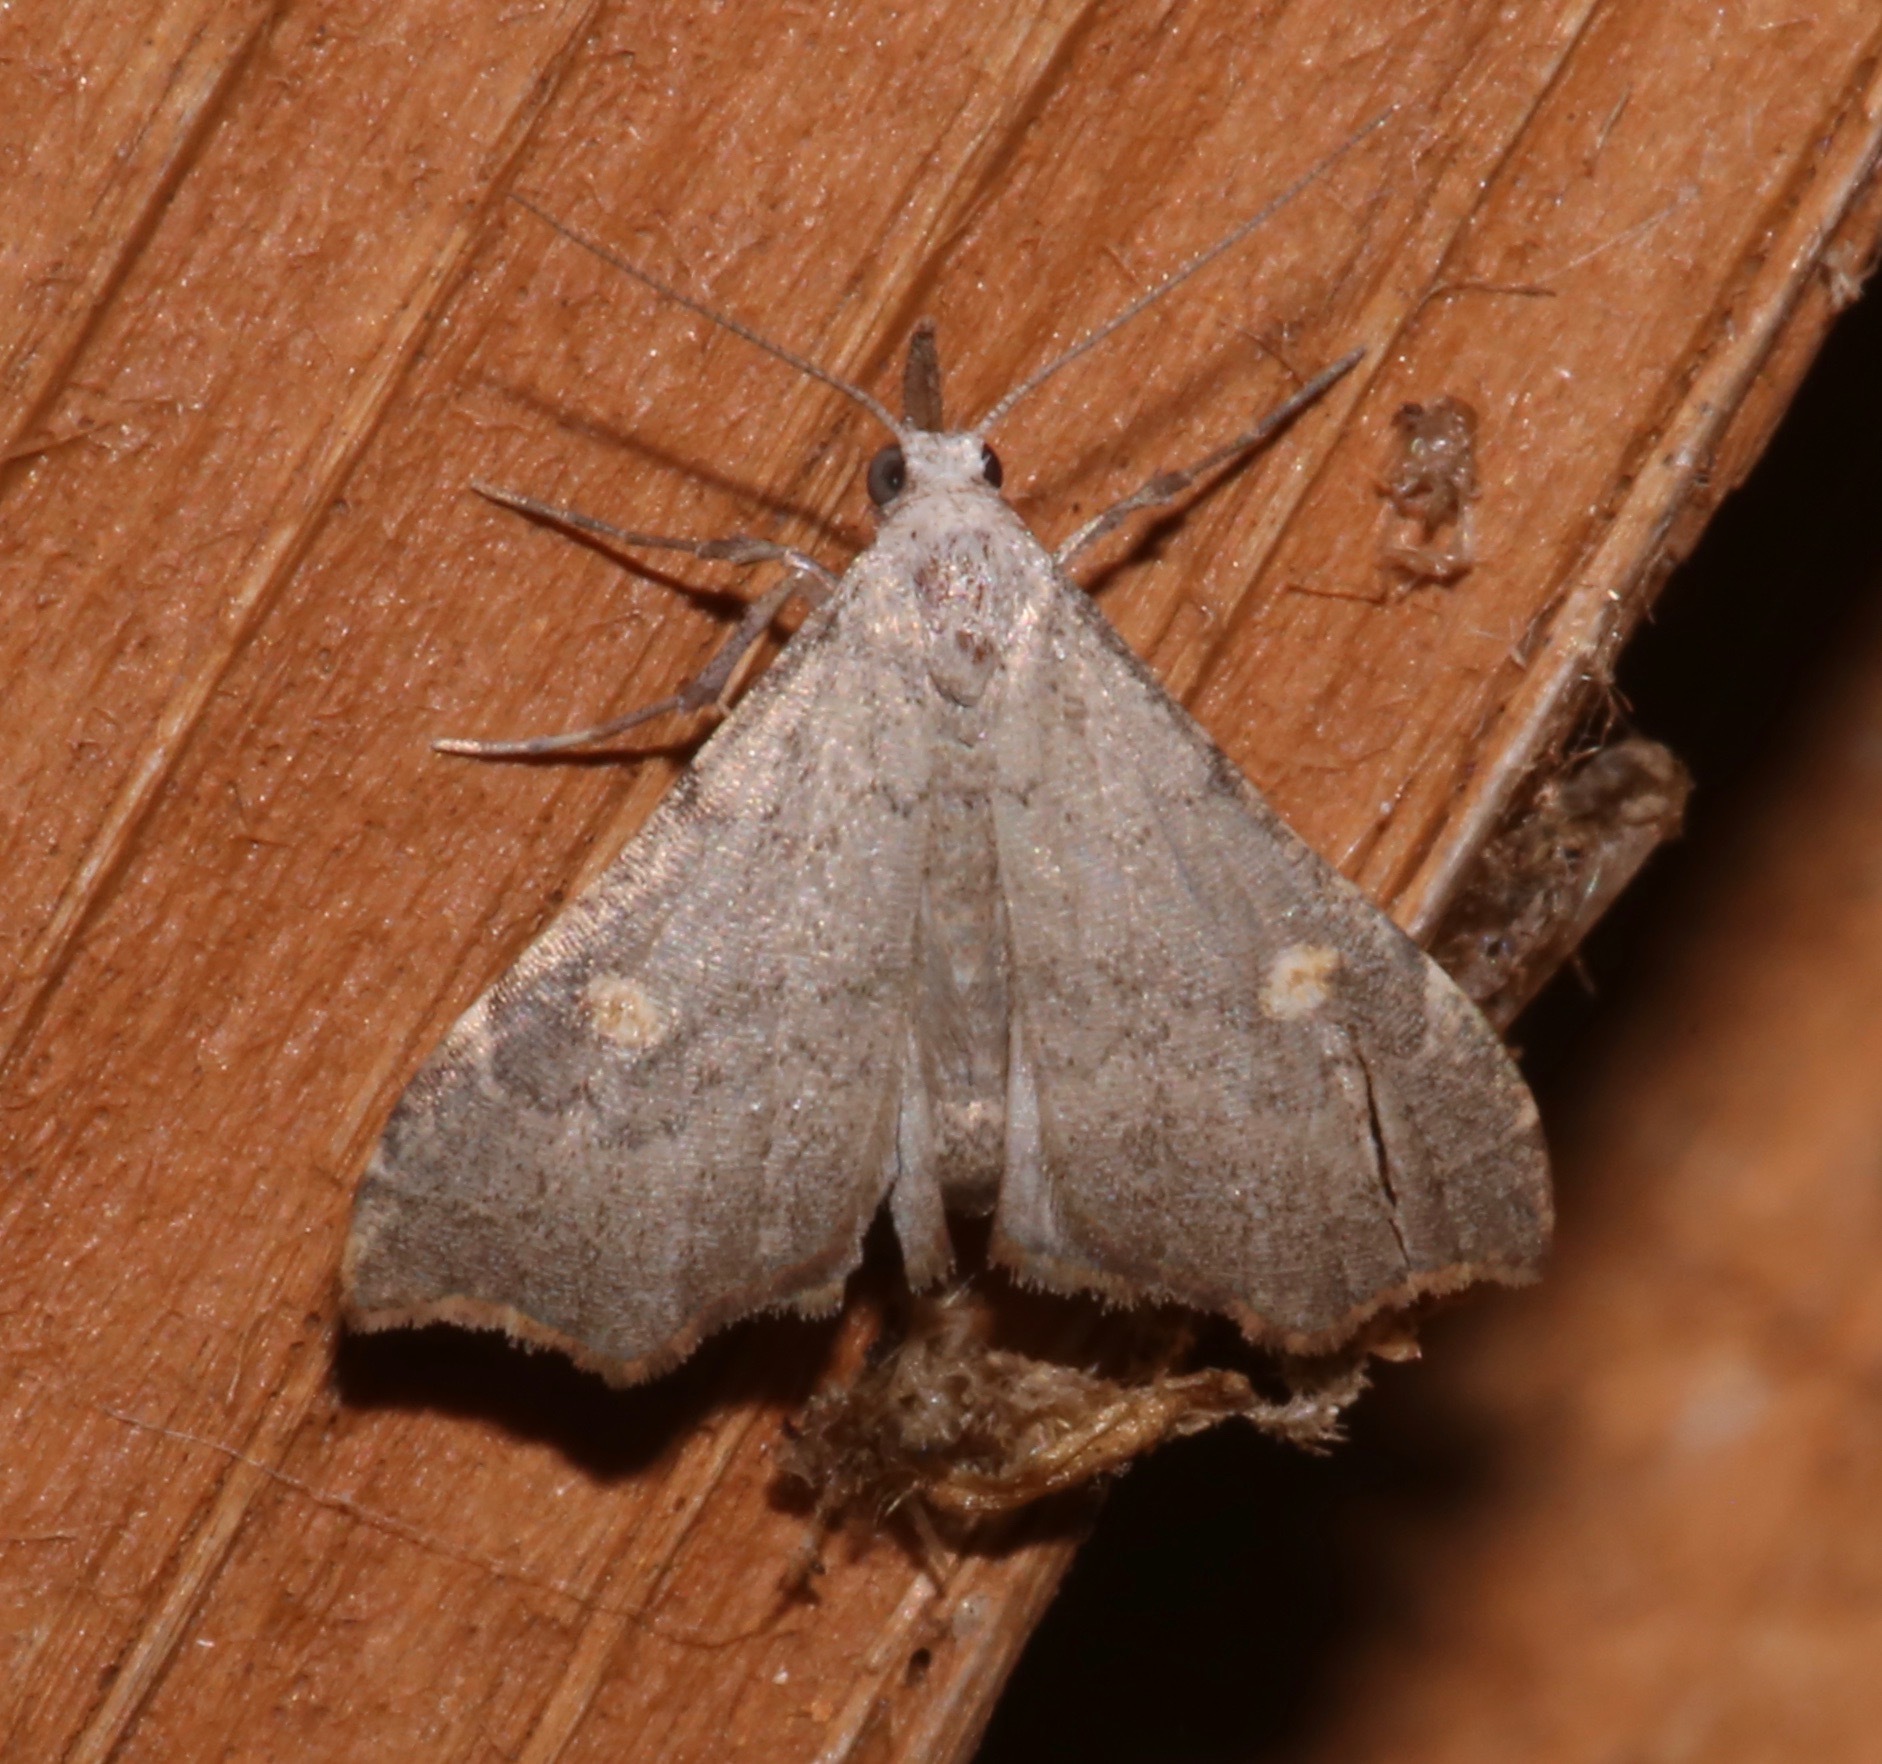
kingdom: Animalia
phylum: Arthropoda
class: Insecta
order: Lepidoptera
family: Erebidae
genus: Redectis
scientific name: Redectis pygmaea
